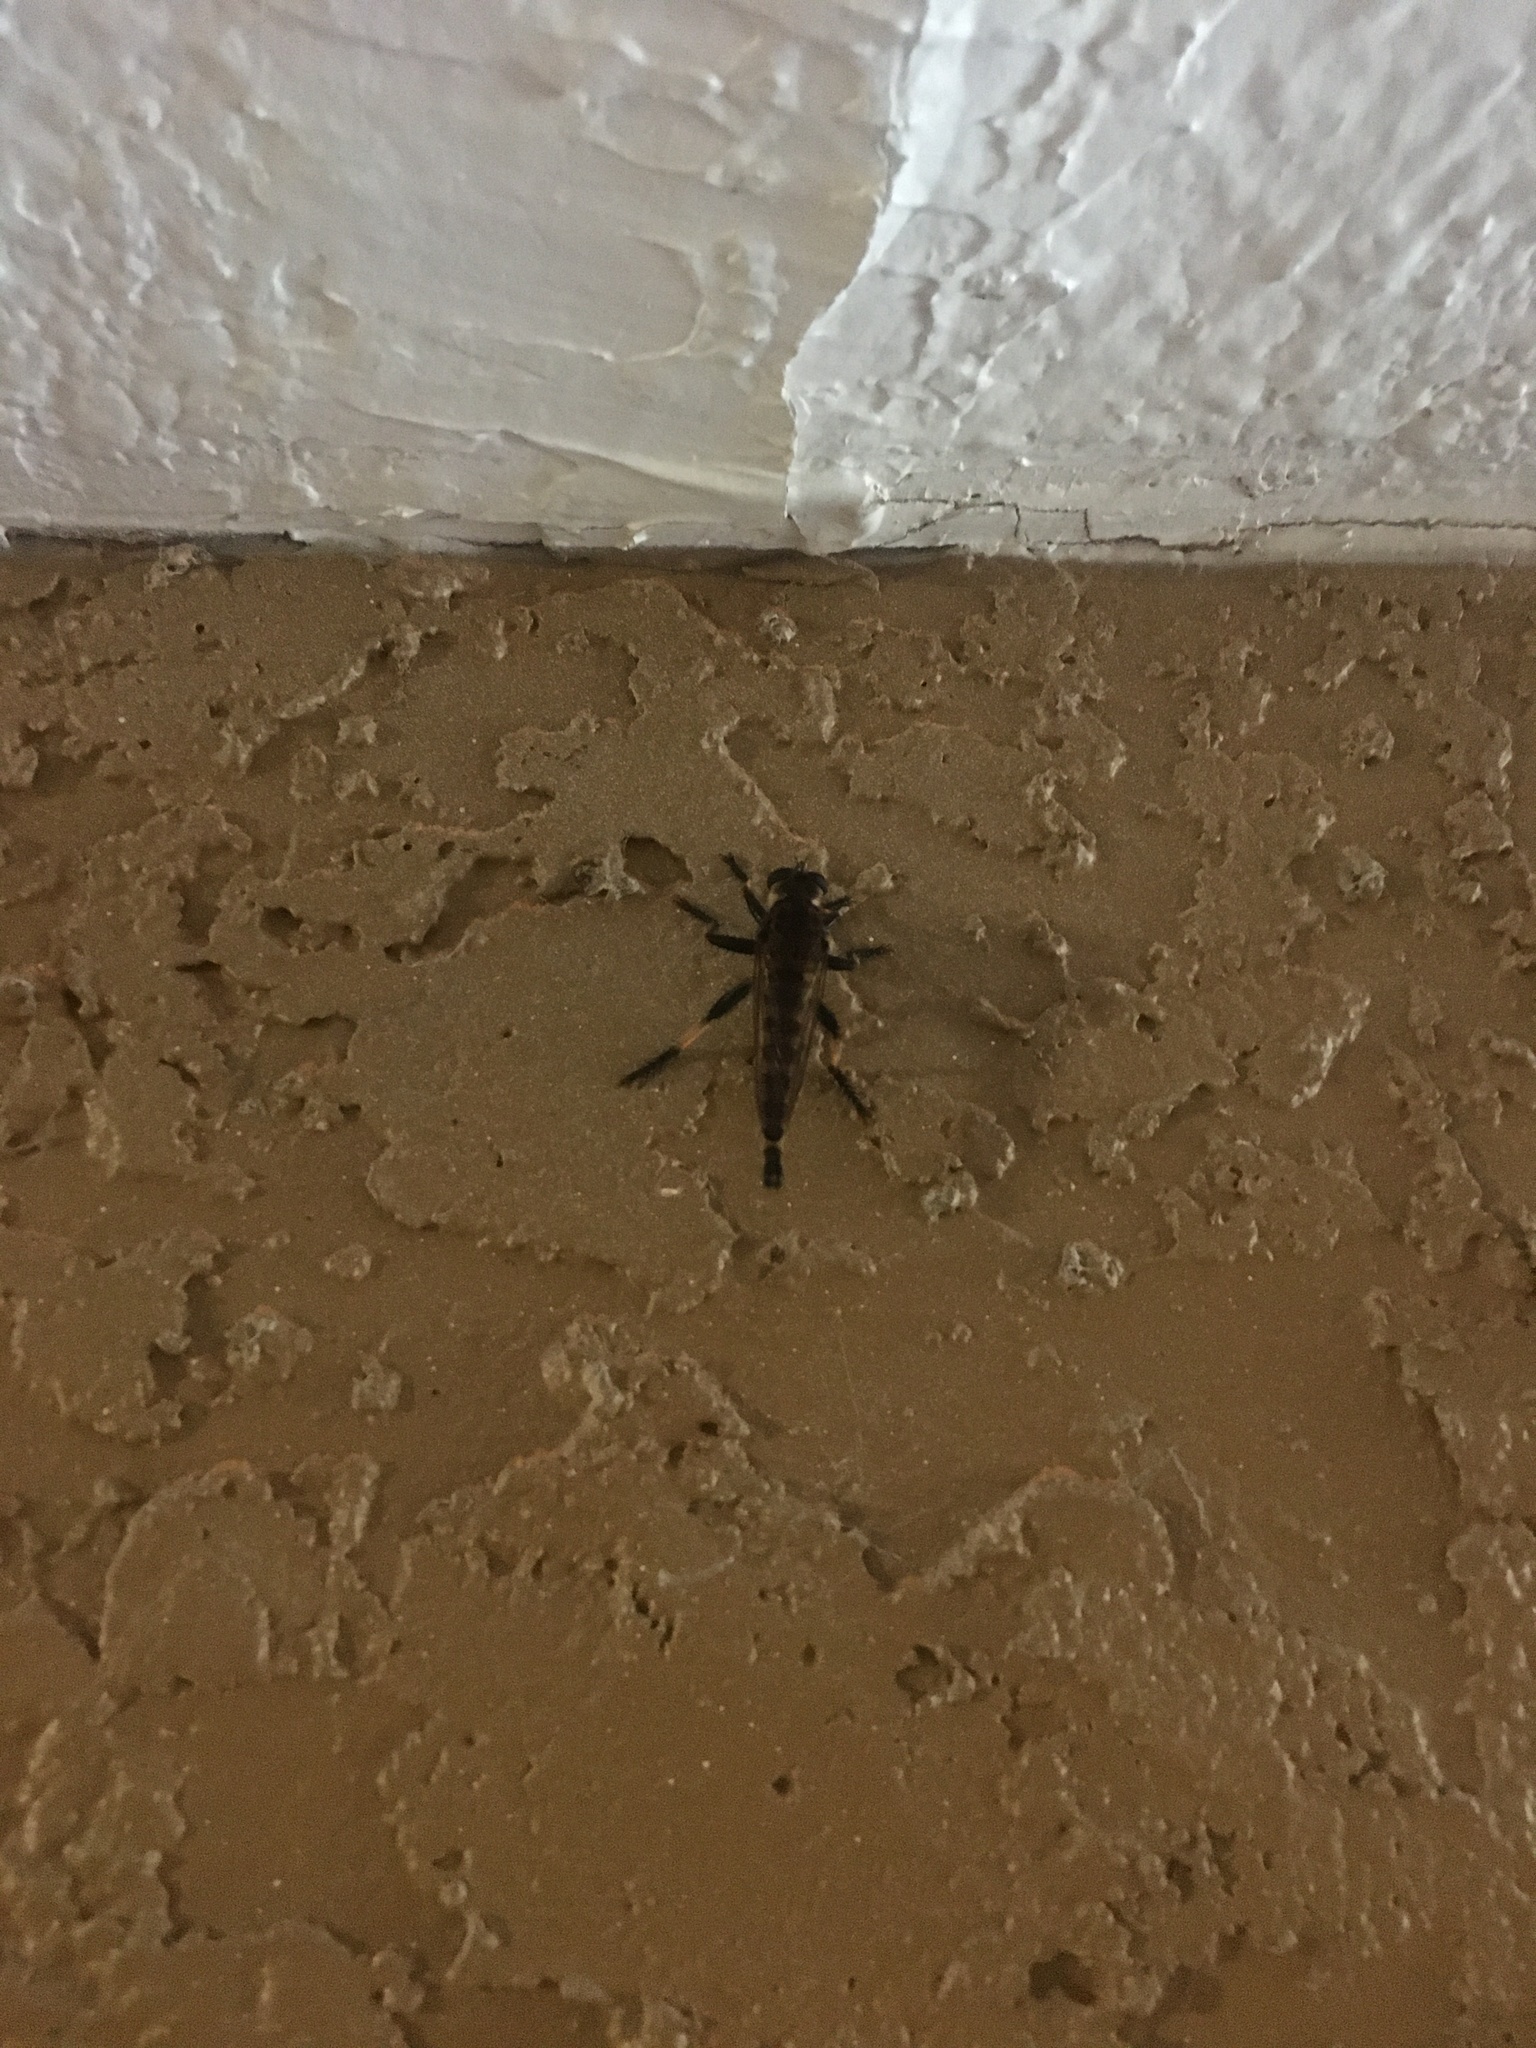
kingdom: Animalia
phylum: Arthropoda
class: Insecta
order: Diptera
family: Asilidae
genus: Promachus
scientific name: Promachus rufipes
